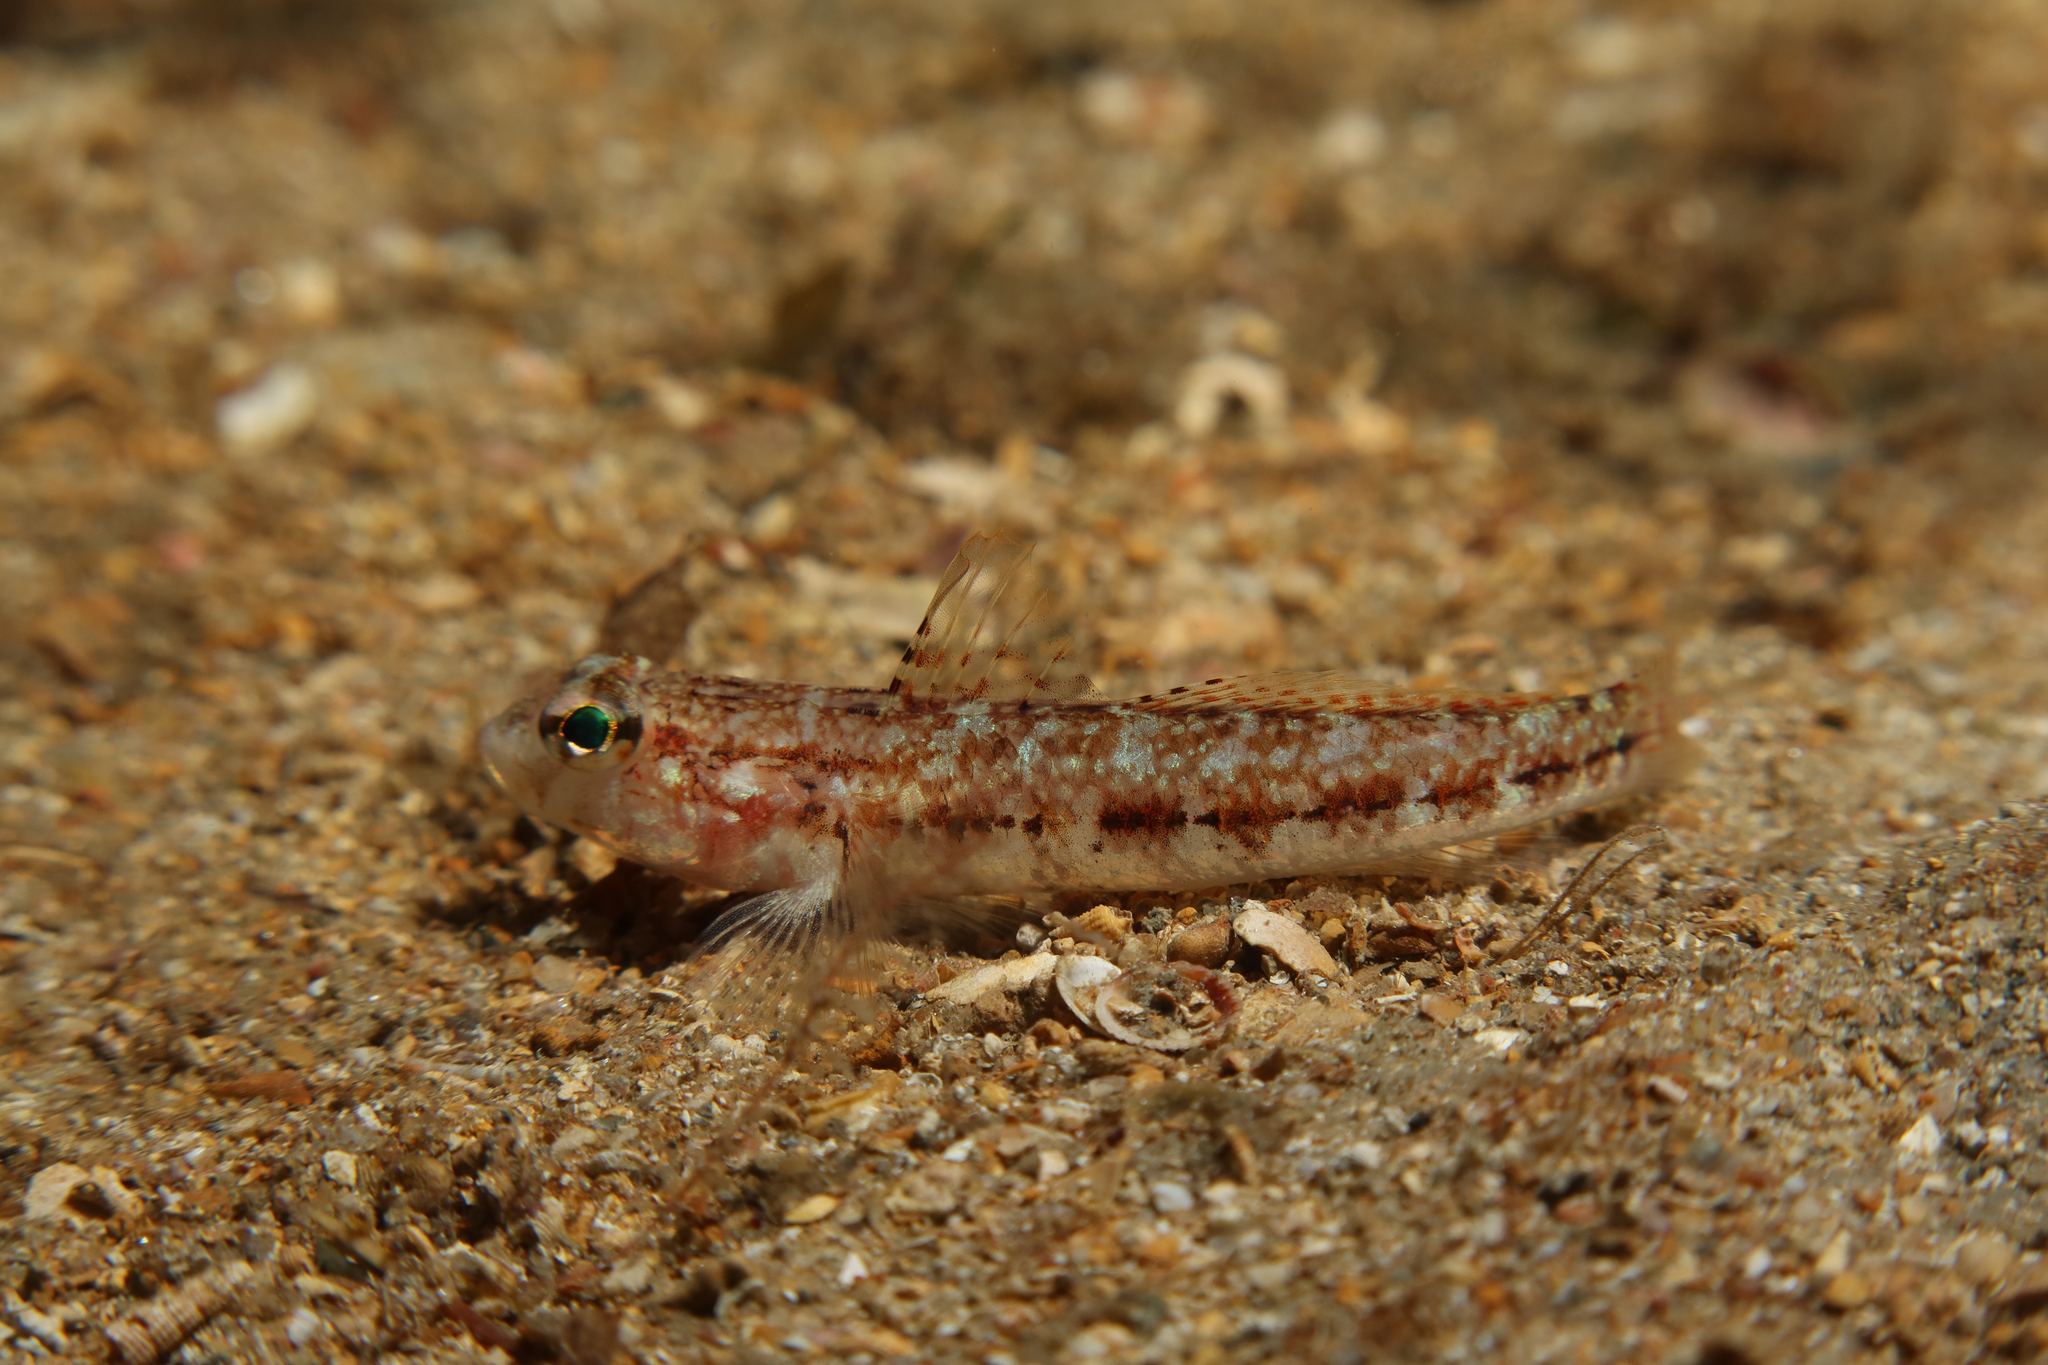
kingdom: Animalia
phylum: Chordata
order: Perciformes
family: Gobiidae
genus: Gobius
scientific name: Gobius roulei
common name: Roule's goby
